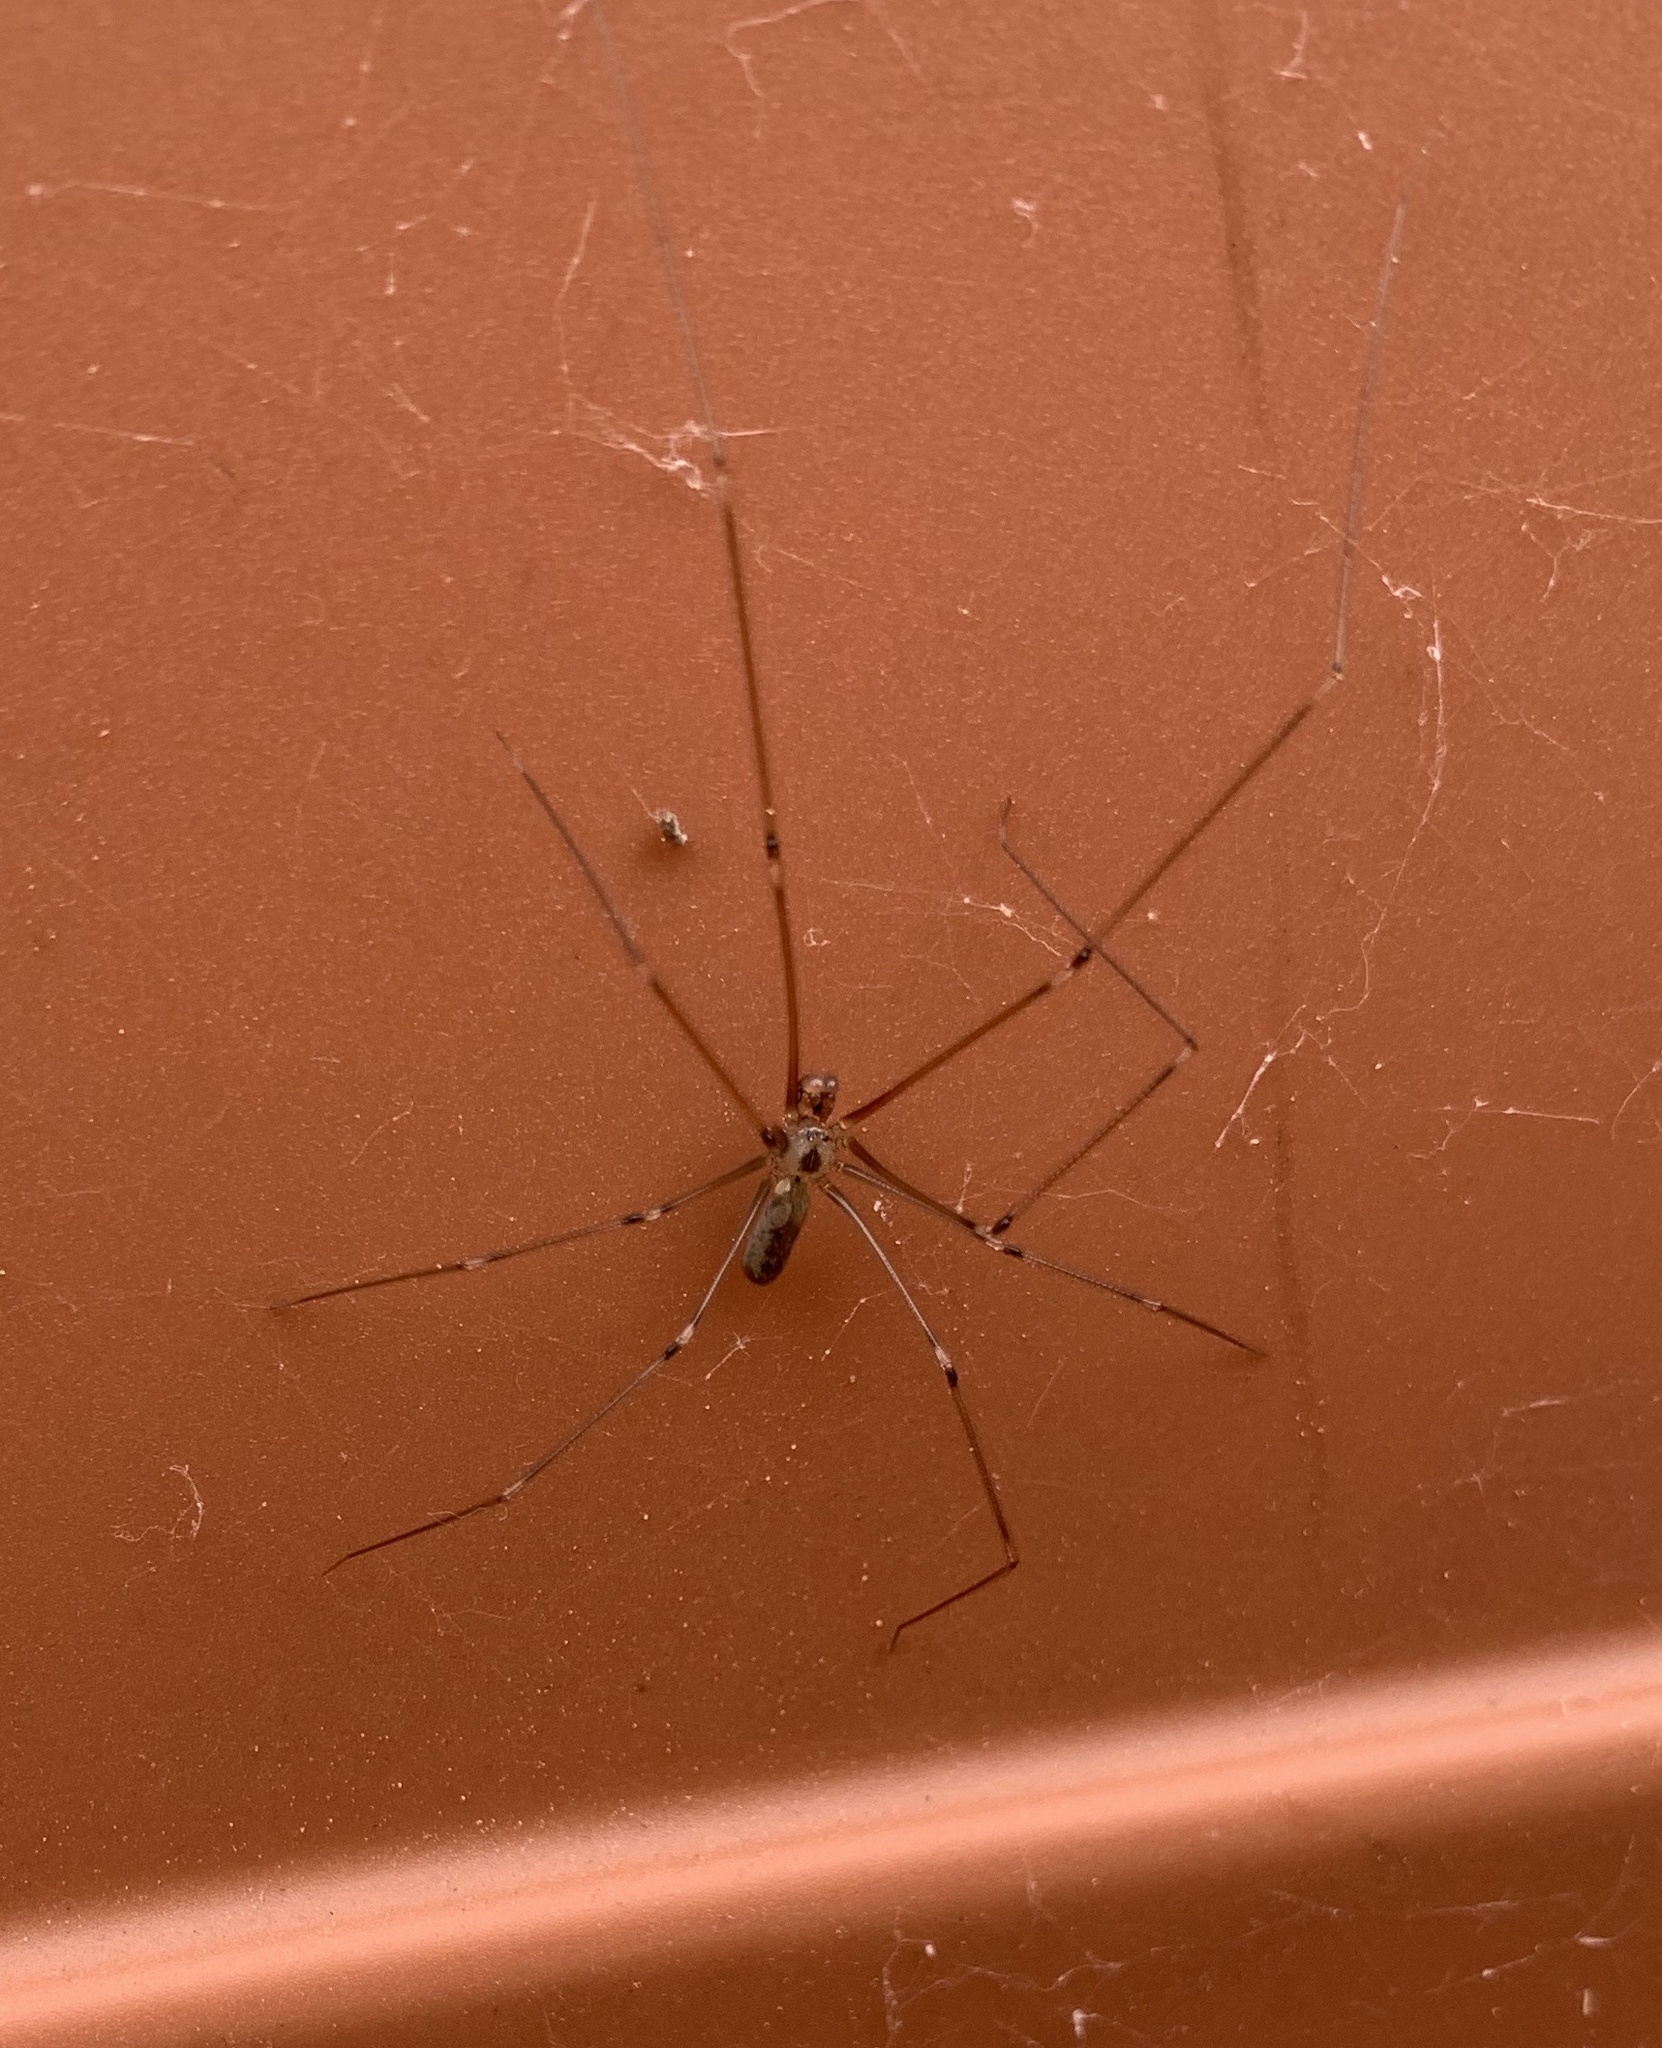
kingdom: Animalia
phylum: Arthropoda
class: Arachnida
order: Araneae
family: Pholcidae
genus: Pholcus
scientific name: Pholcus phalangioides
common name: Longbodied cellar spider
